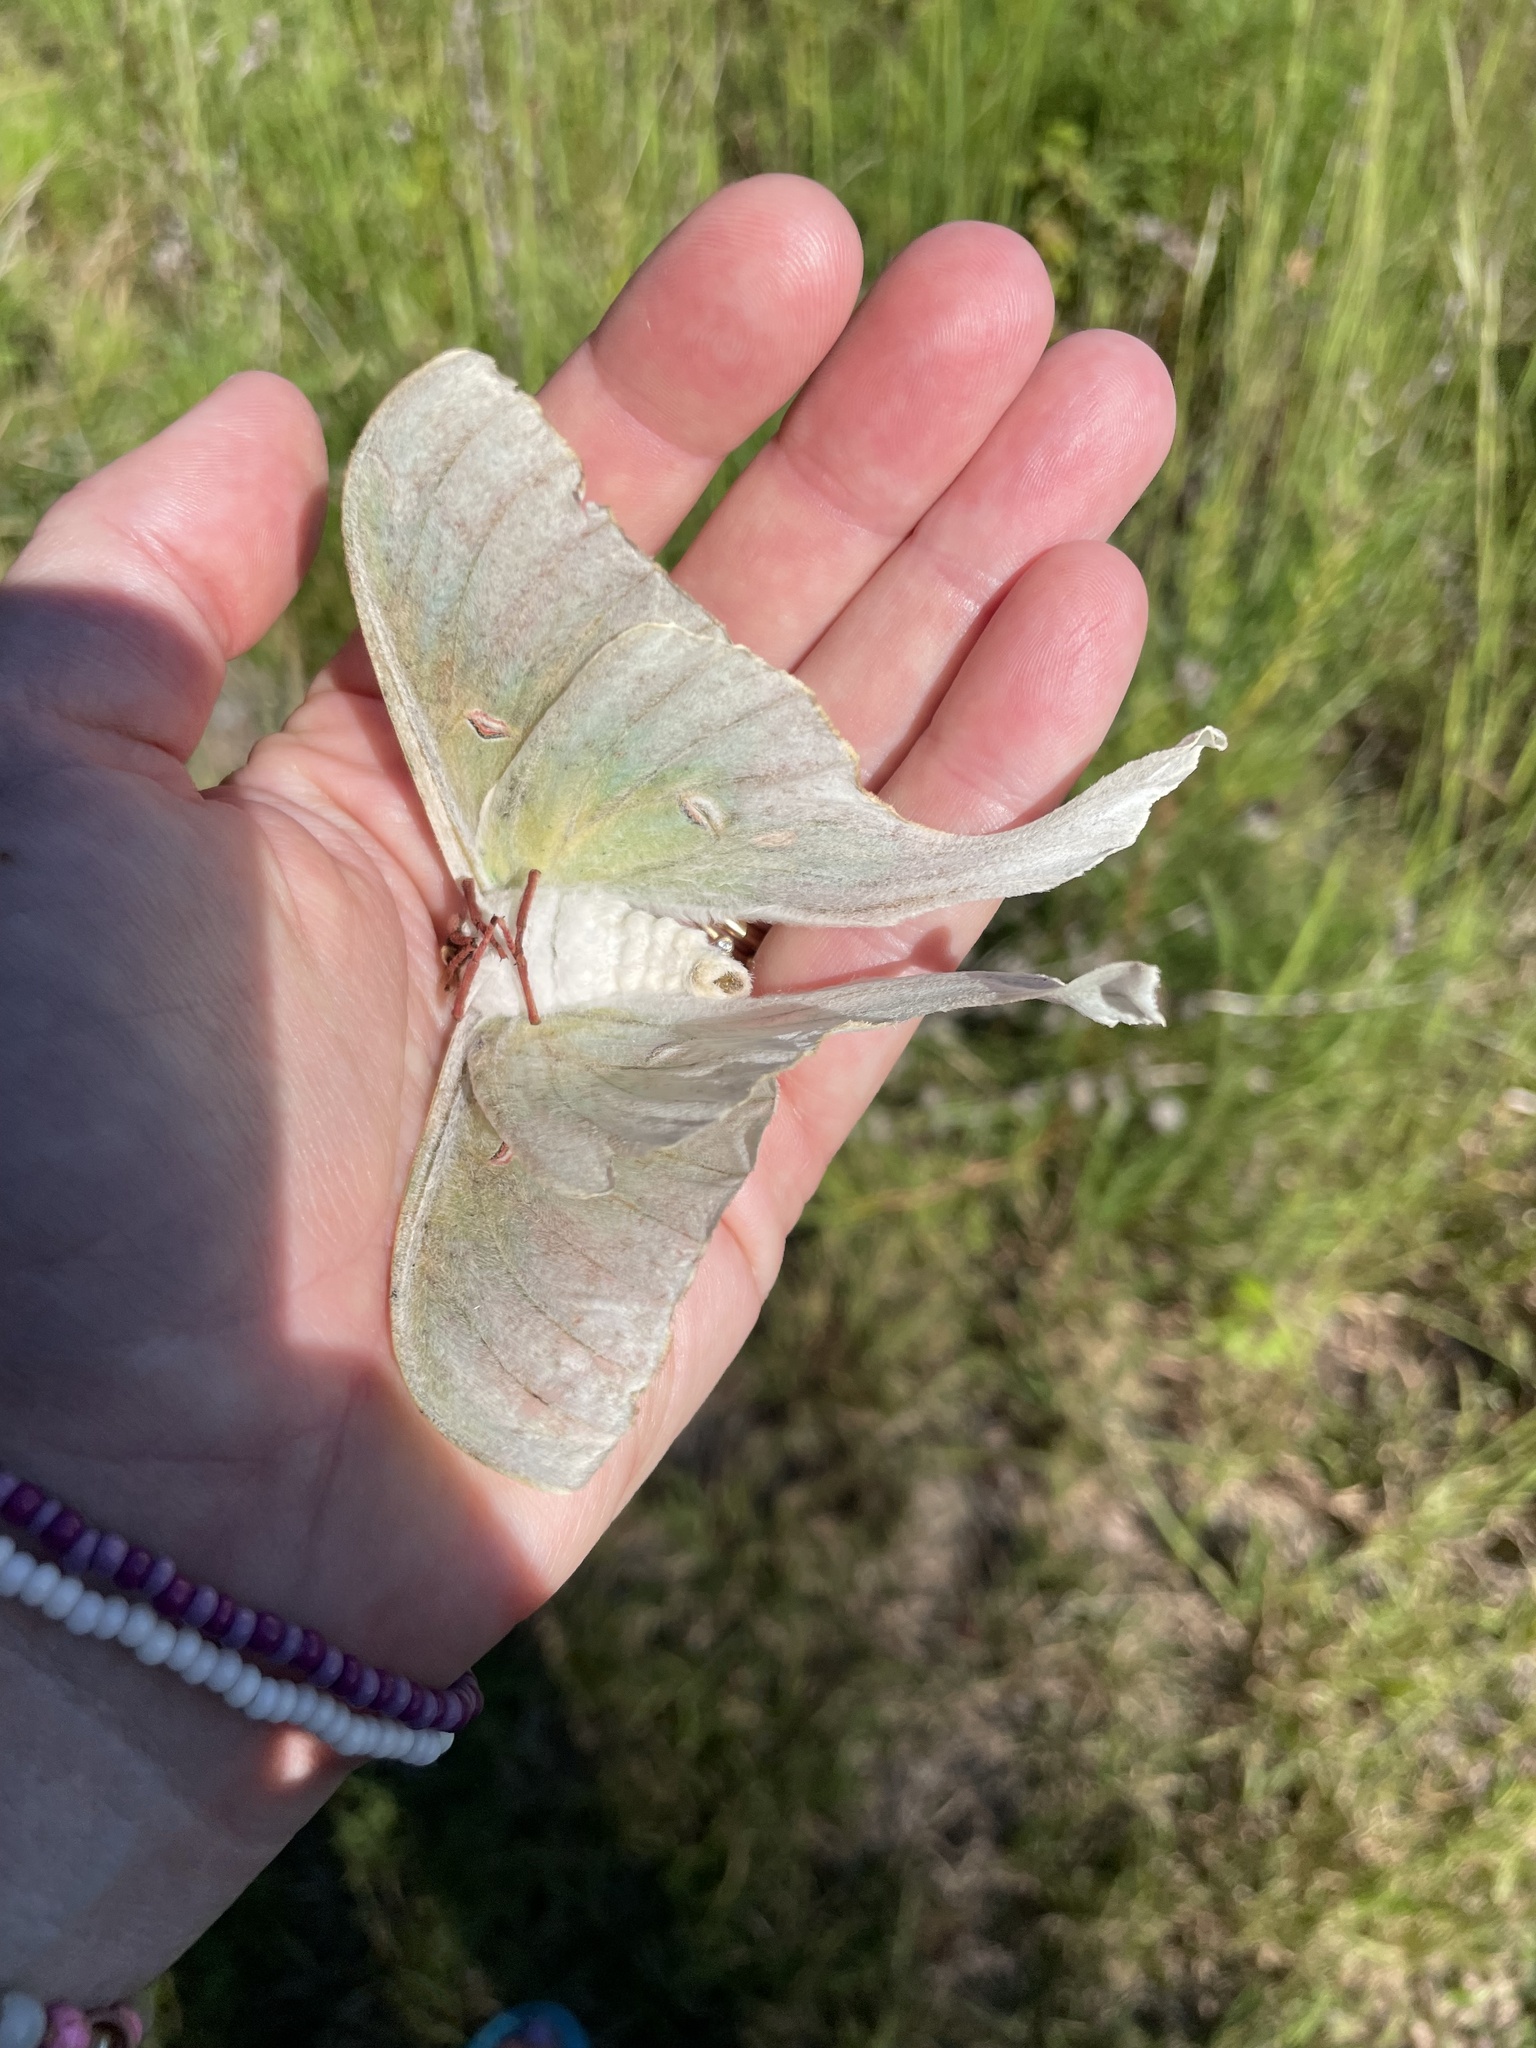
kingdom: Animalia
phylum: Arthropoda
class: Insecta
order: Lepidoptera
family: Saturniidae
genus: Actias
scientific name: Actias luna
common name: Luna moth
